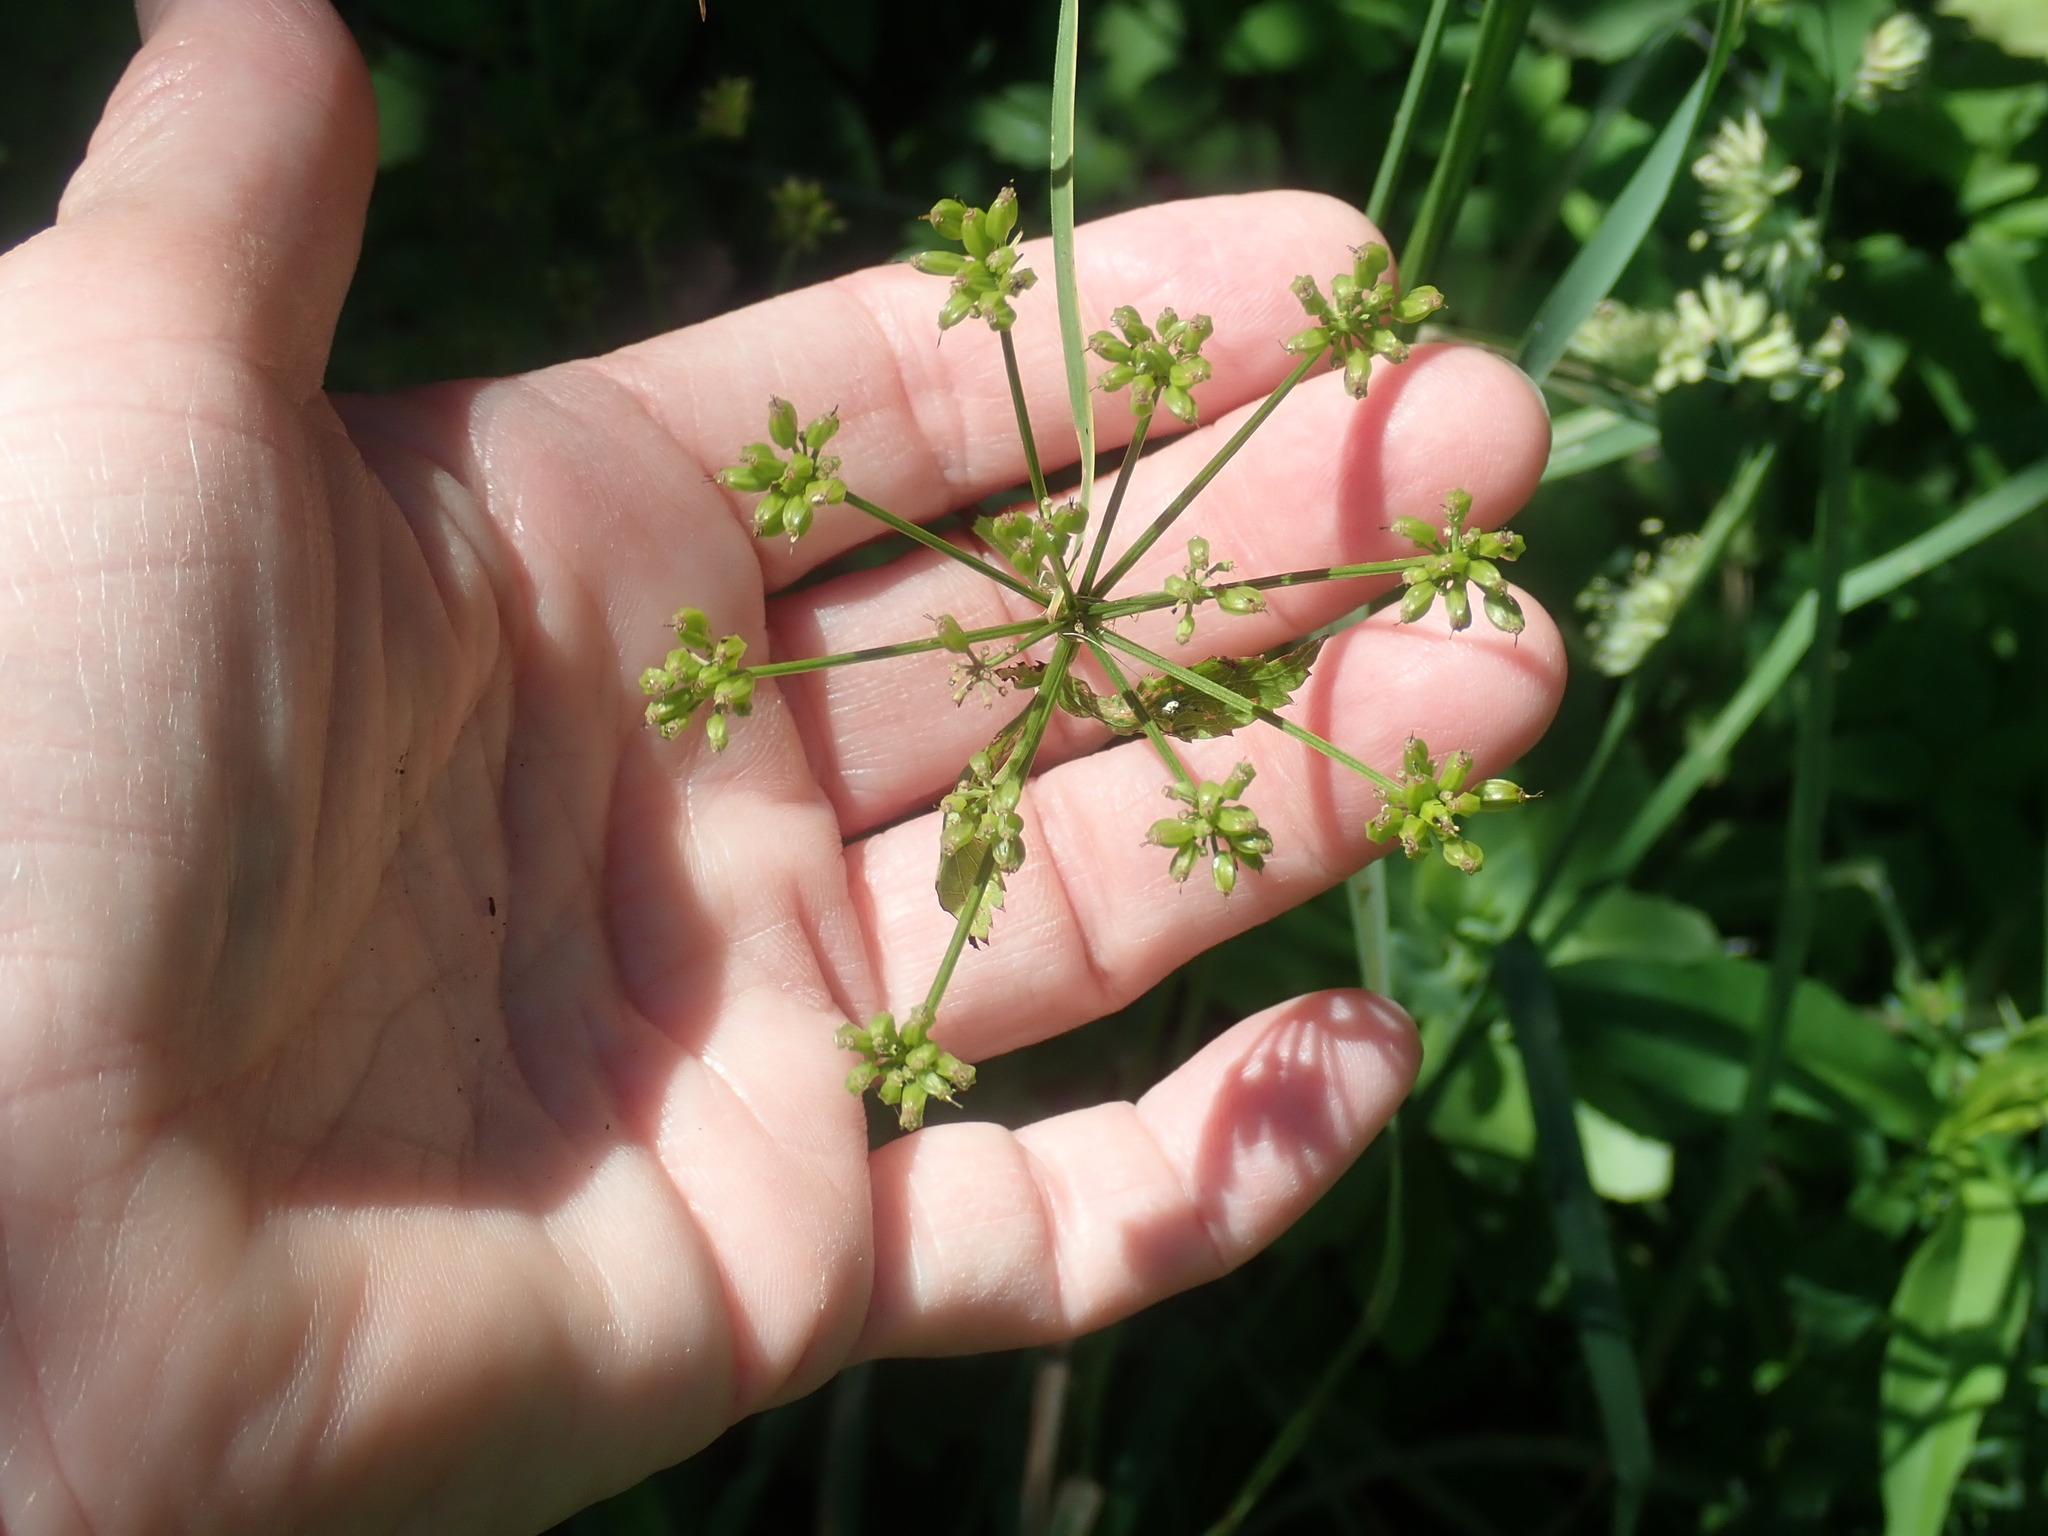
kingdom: Plantae
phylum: Tracheophyta
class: Magnoliopsida
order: Apiales
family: Apiaceae
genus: Zizia
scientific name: Zizia aurea
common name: Golden alexanders
